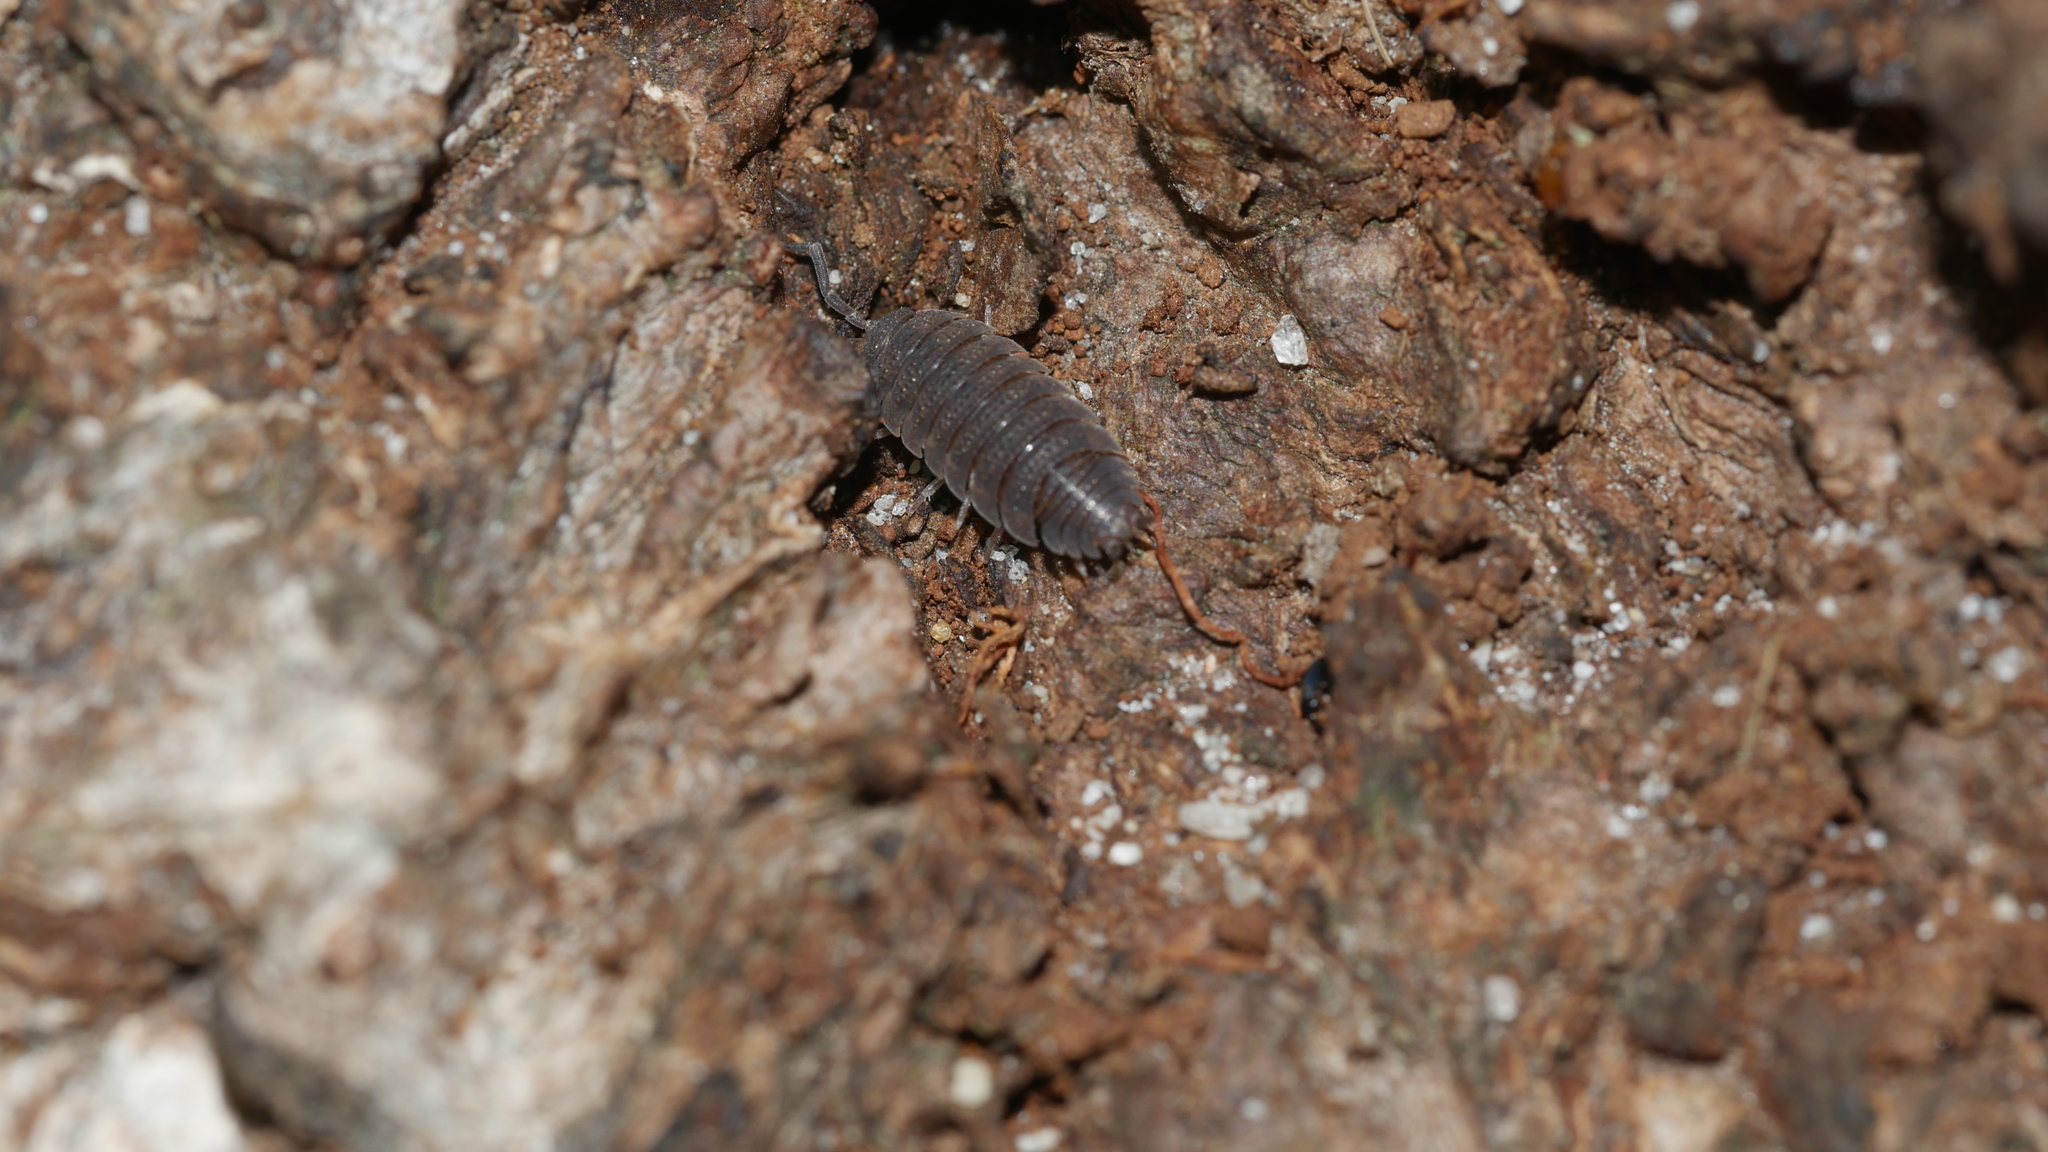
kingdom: Animalia
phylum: Arthropoda
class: Malacostraca
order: Isopoda
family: Porcellionidae
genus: Porcellio
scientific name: Porcellio scaber
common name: Common rough woodlouse
